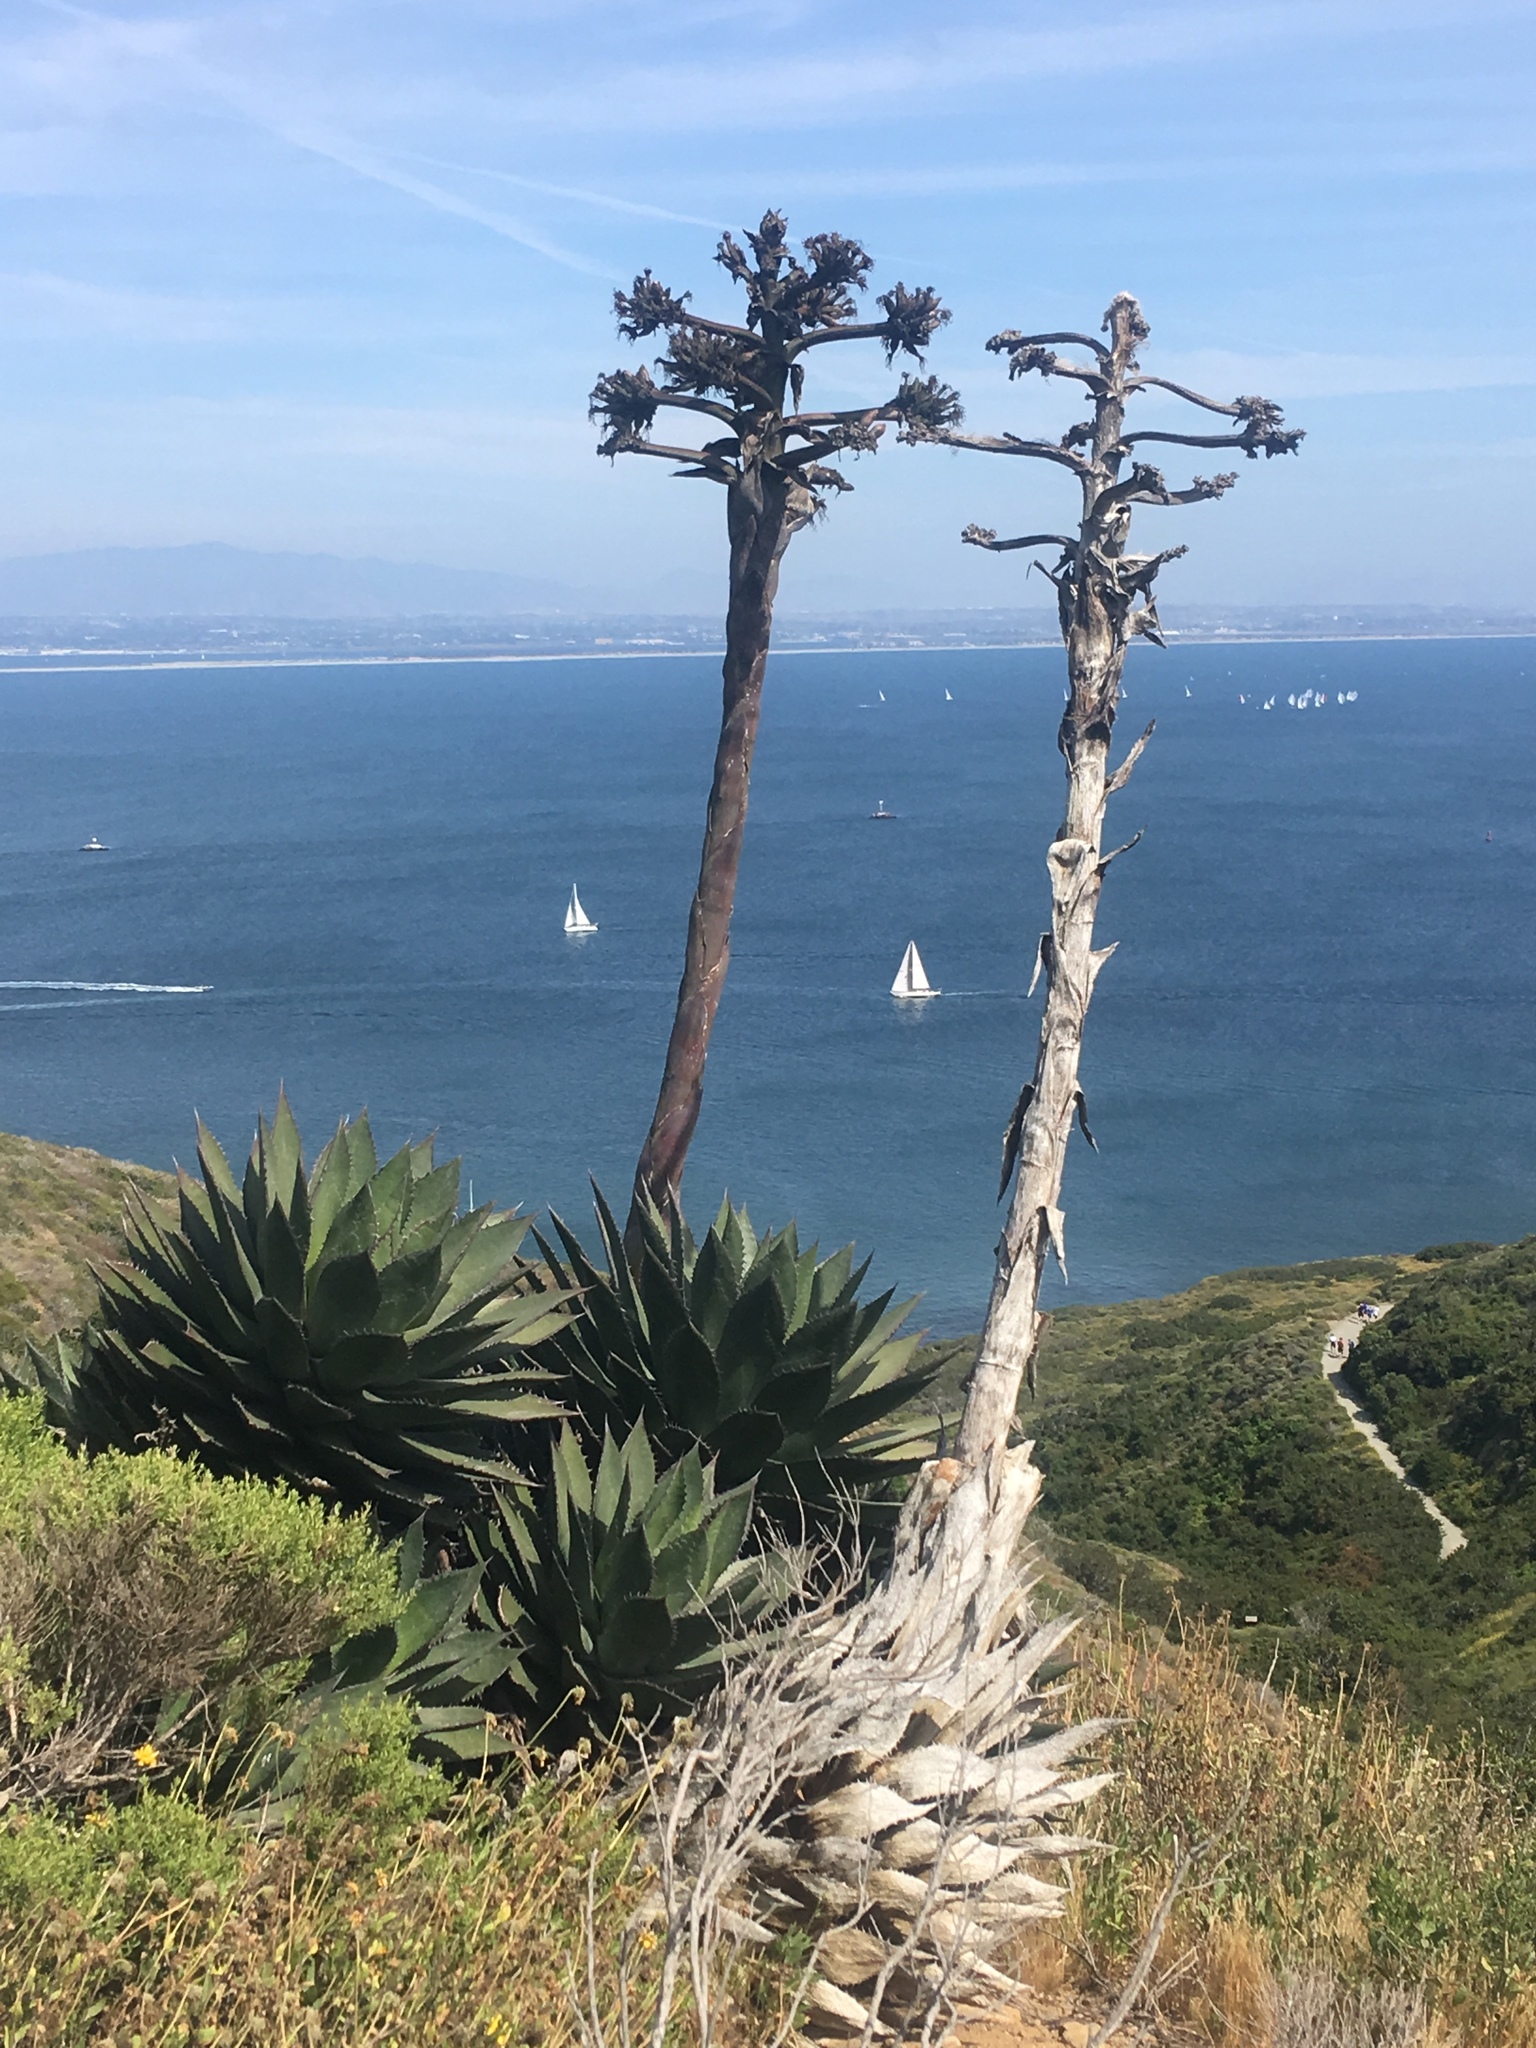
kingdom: Plantae
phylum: Tracheophyta
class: Liliopsida
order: Asparagales
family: Asparagaceae
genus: Agave
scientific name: Agave shawii
